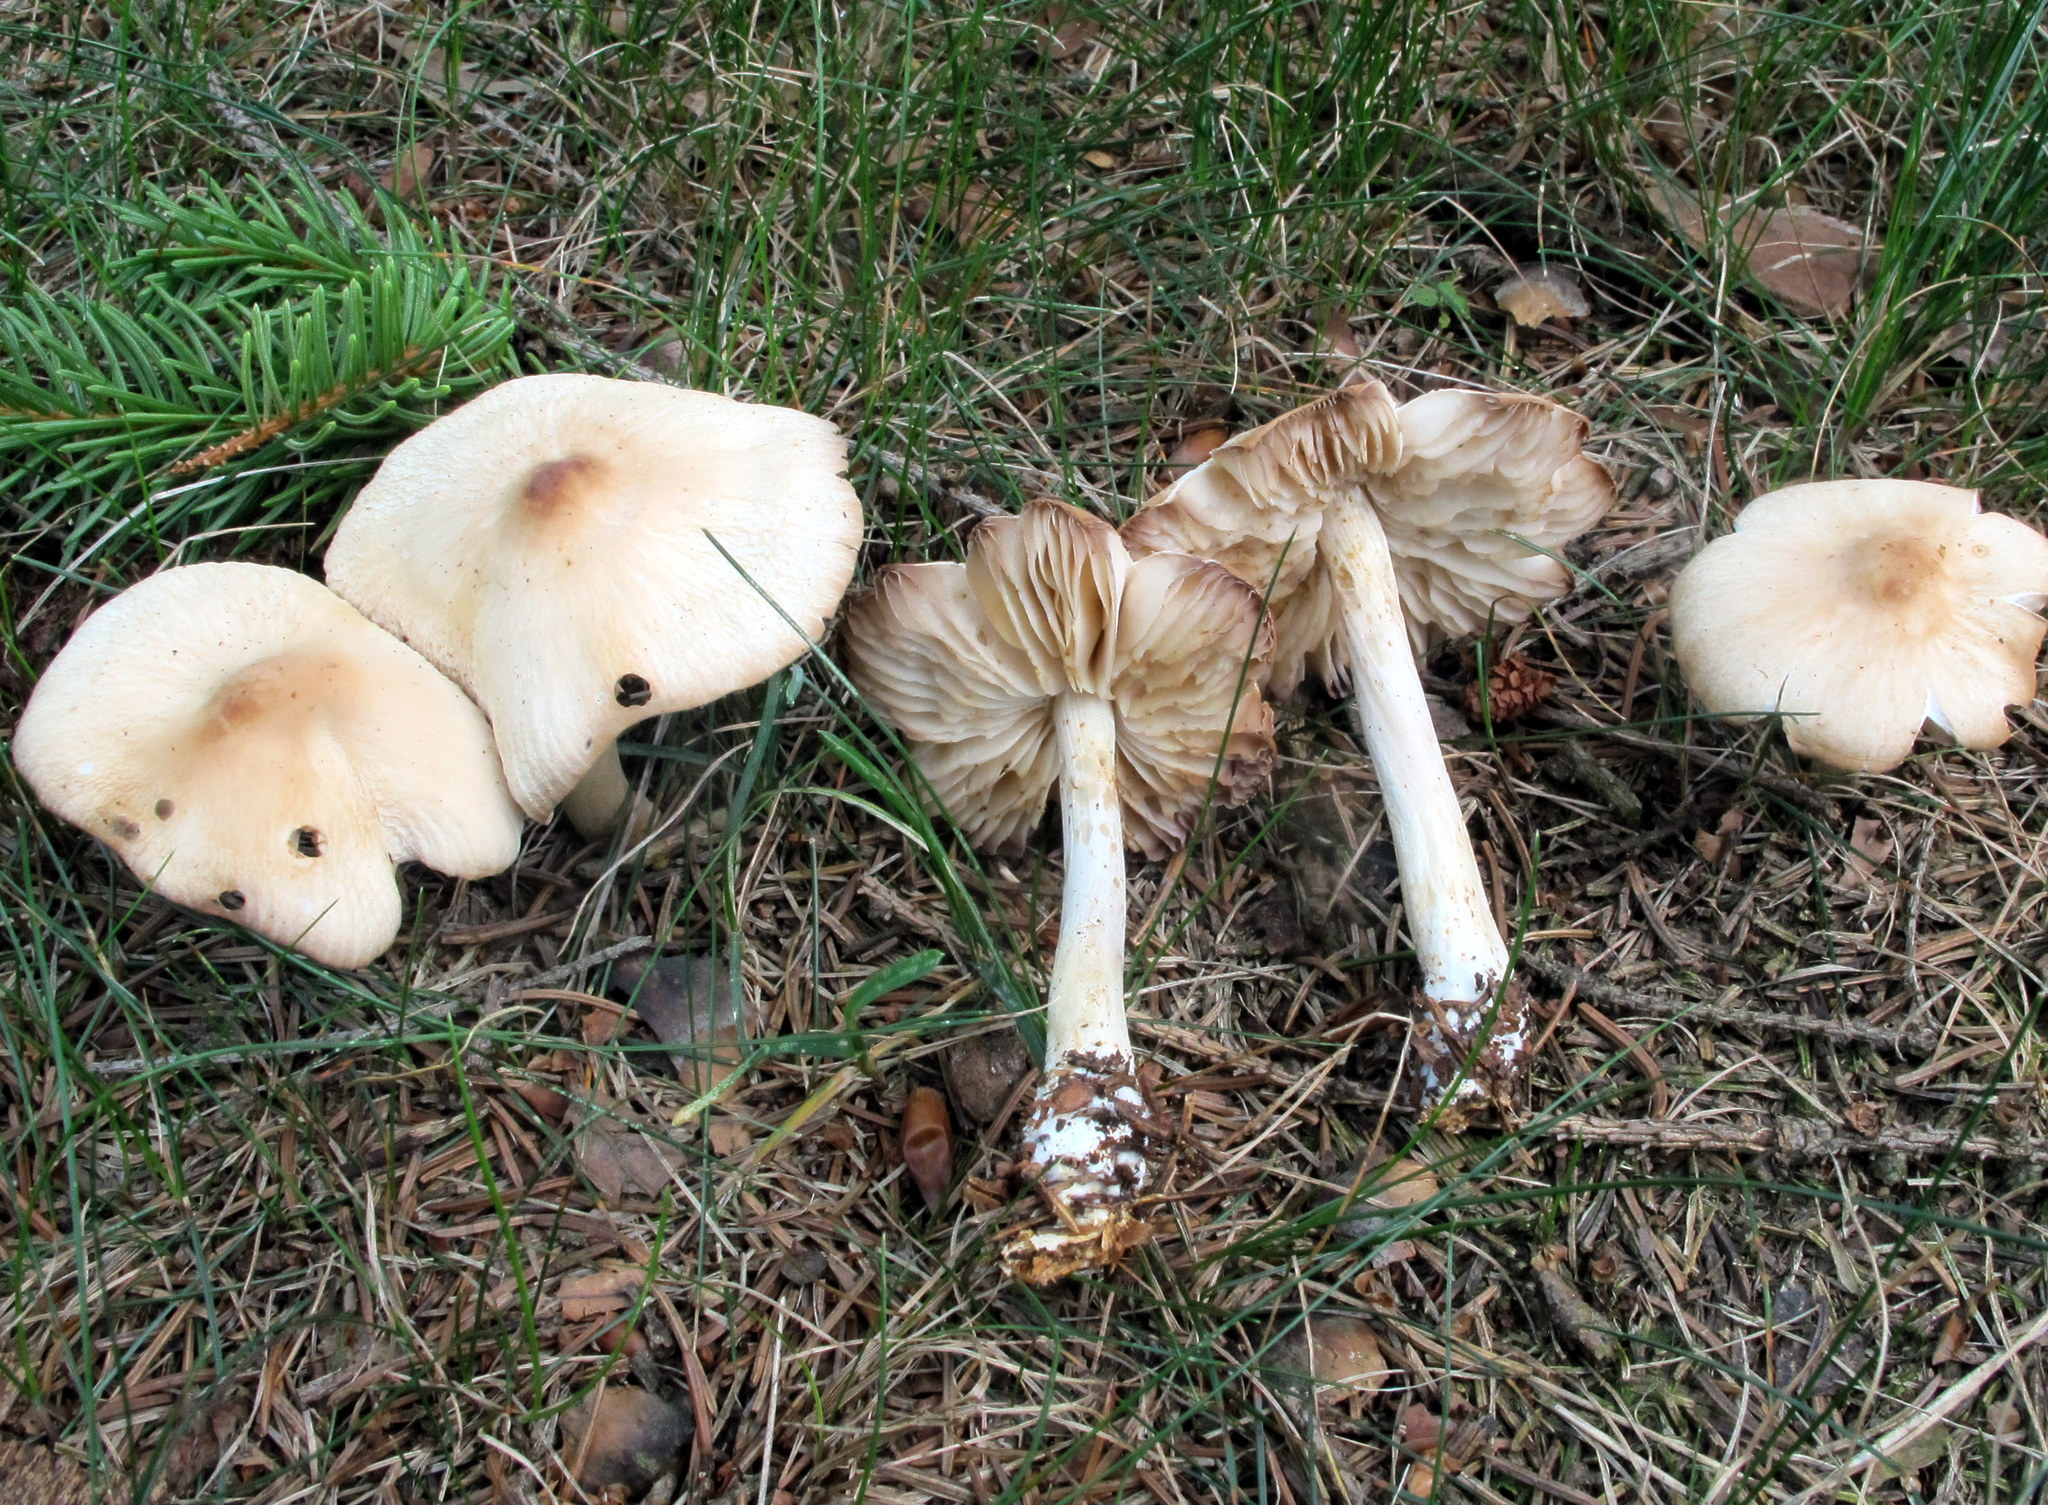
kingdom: Fungi
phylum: Basidiomycota
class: Agaricomycetes
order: Agaricales
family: Marasmiaceae
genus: Marasmius
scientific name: Marasmius nigrodiscus
